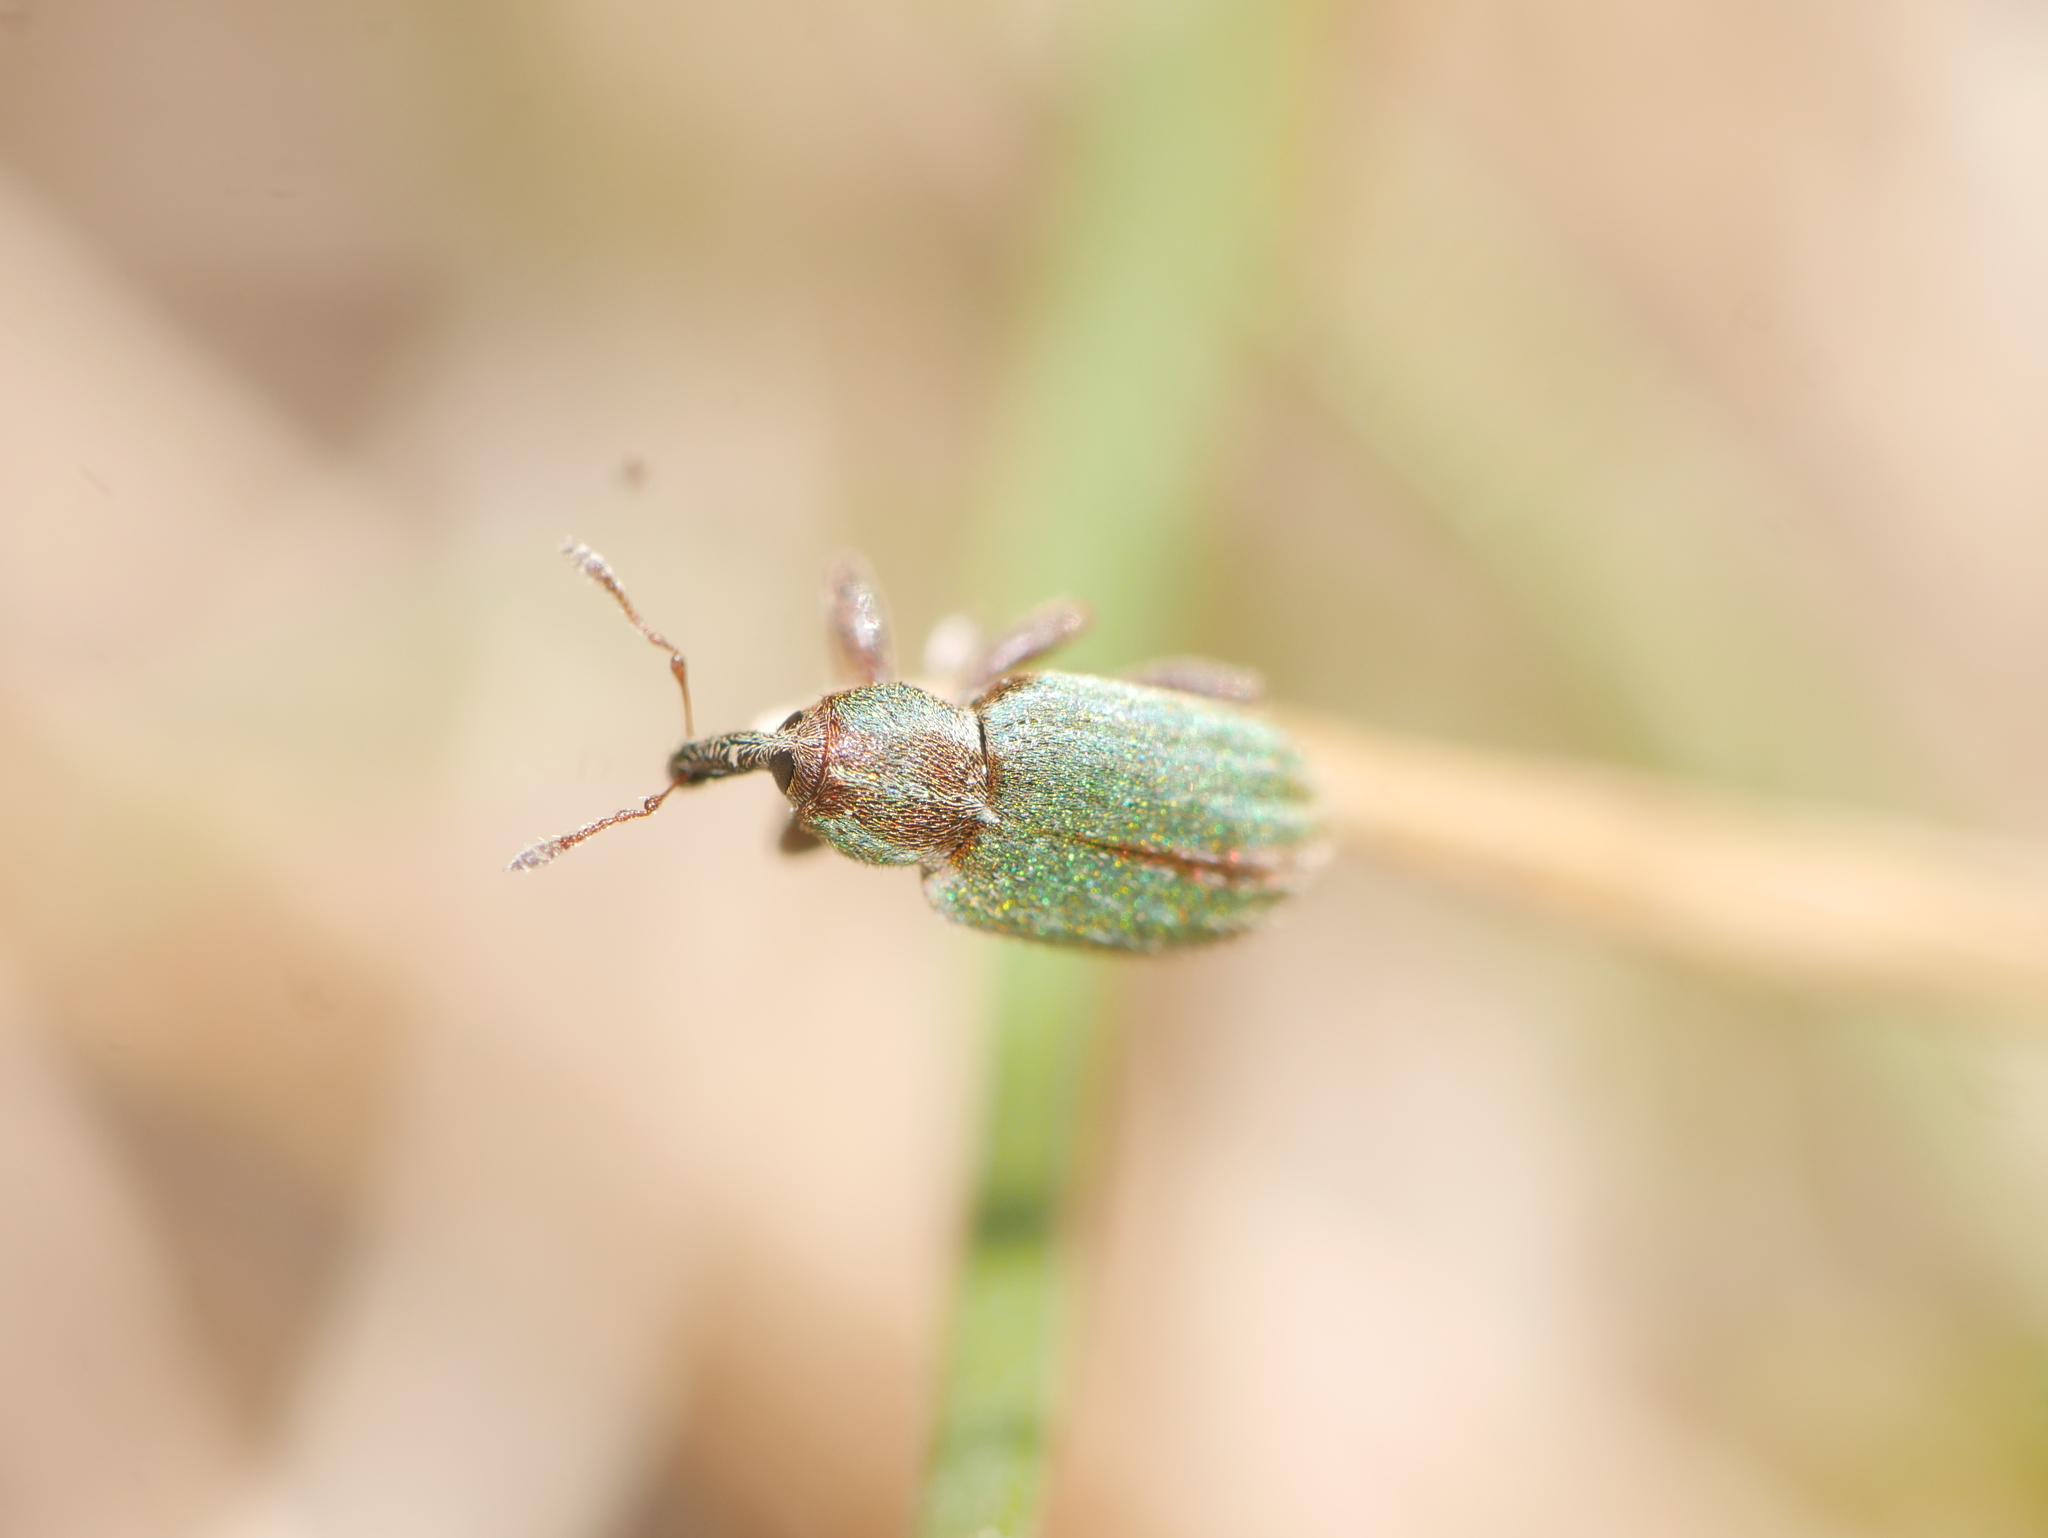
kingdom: Animalia
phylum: Arthropoda
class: Insecta
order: Coleoptera
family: Curculionidae
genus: Hypera
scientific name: Hypera nigrirostris
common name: Black-beaked green weevil
